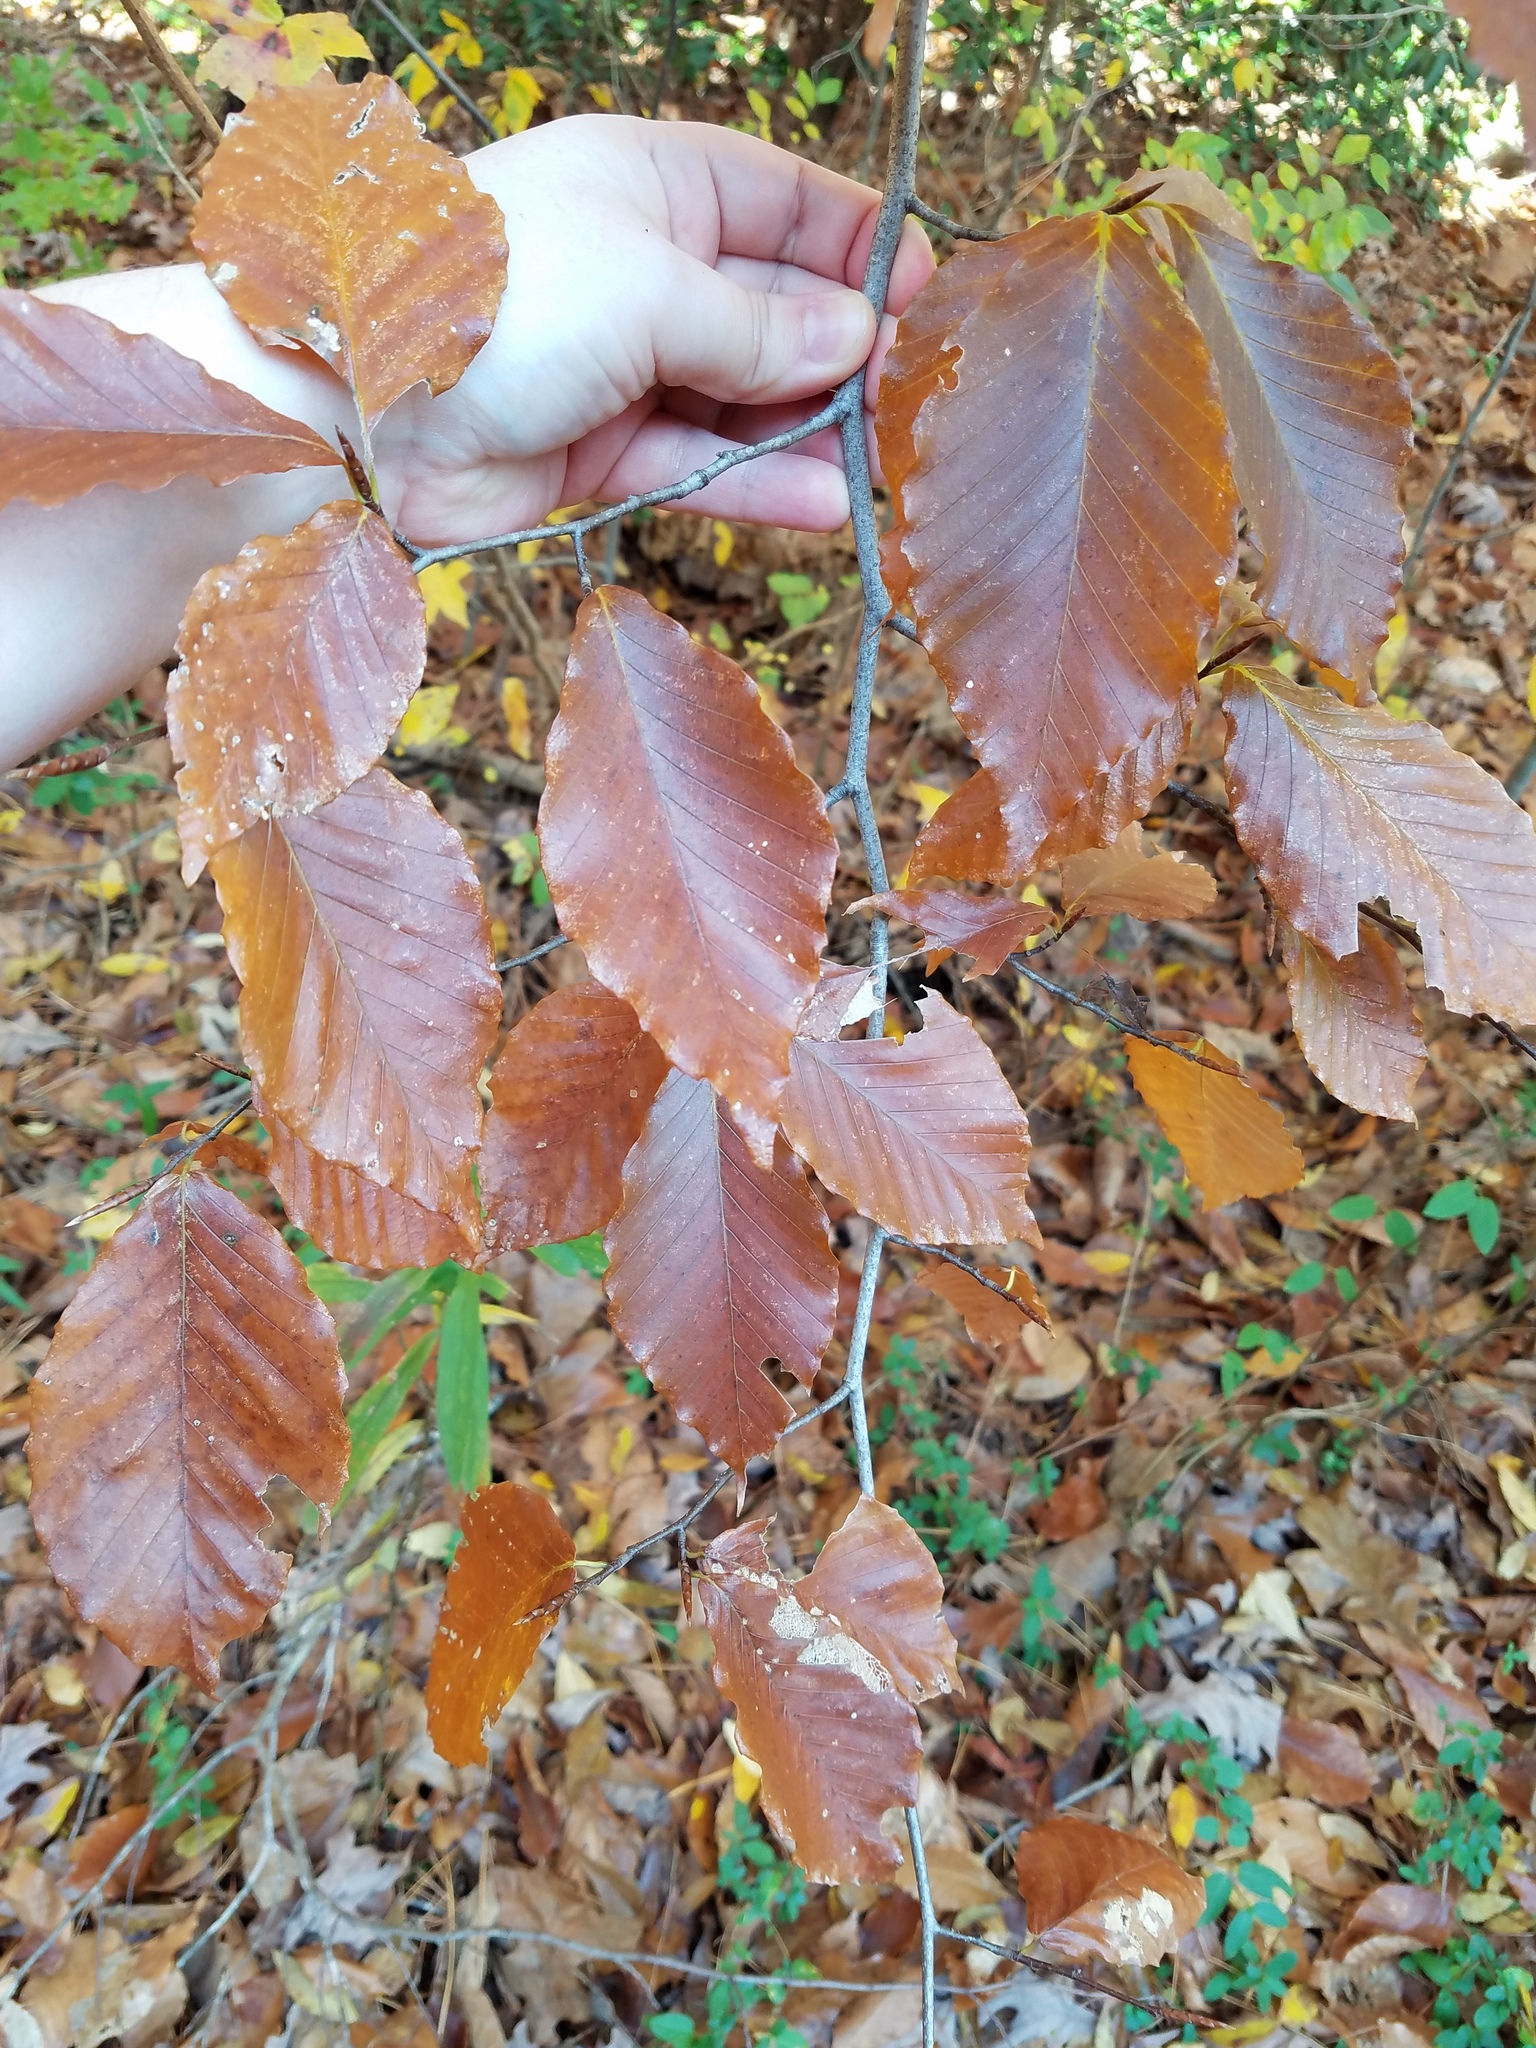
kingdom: Plantae
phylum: Tracheophyta
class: Magnoliopsida
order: Fagales
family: Fagaceae
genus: Fagus
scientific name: Fagus grandifolia
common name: American beech
